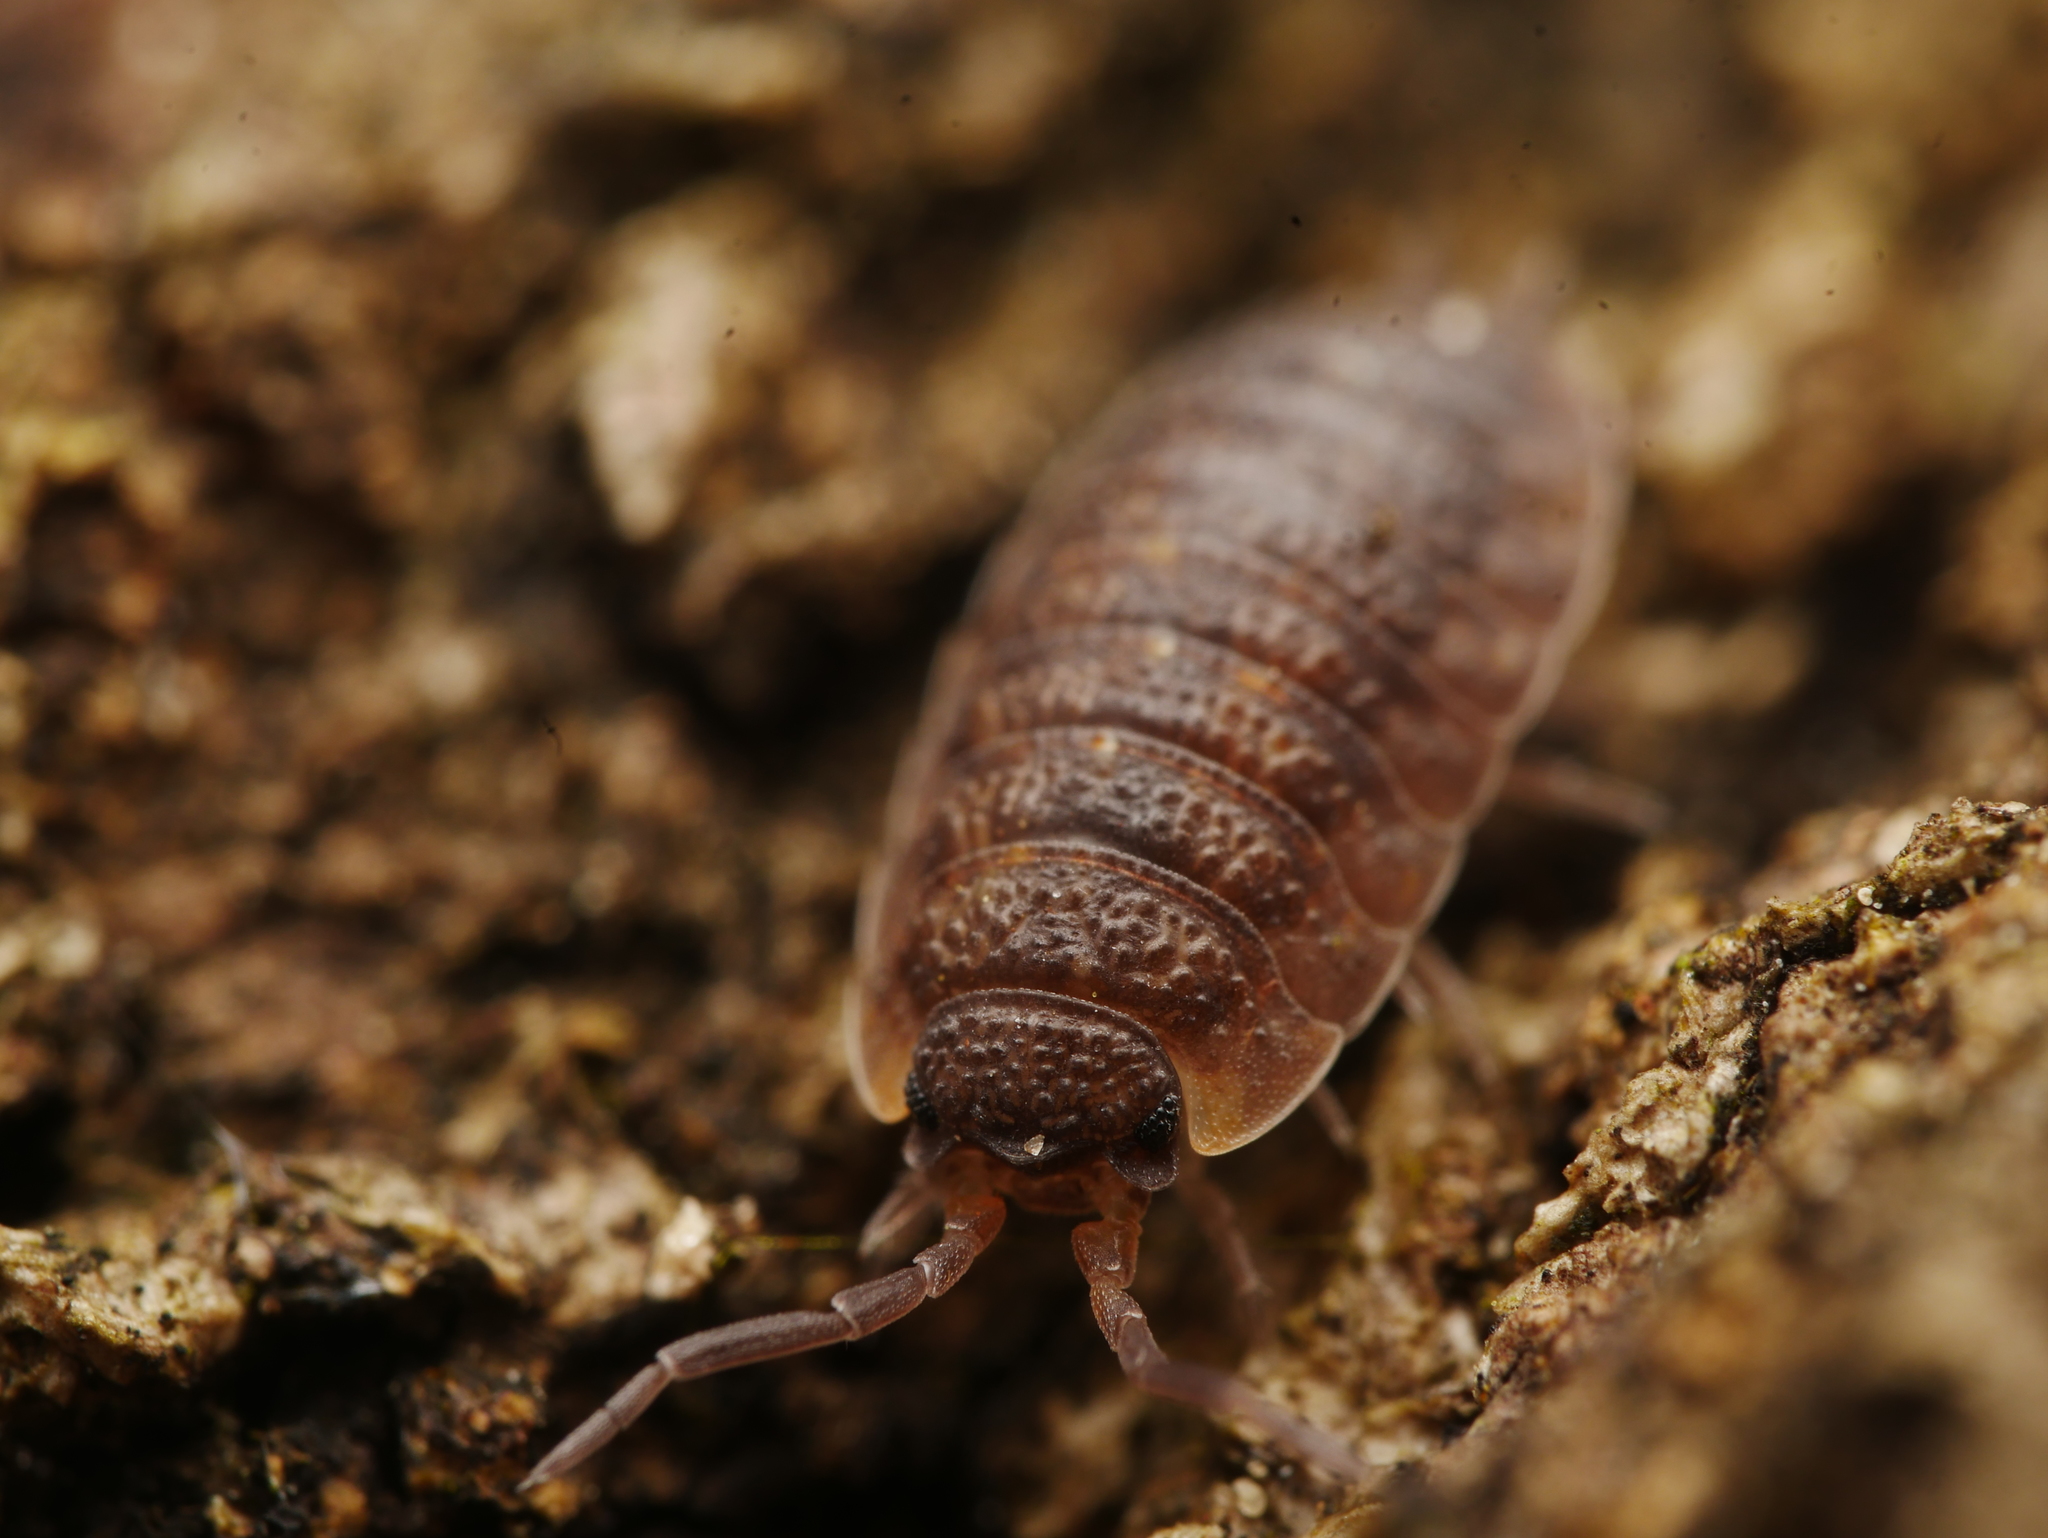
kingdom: Animalia
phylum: Arthropoda
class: Malacostraca
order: Isopoda
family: Porcellionidae
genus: Porcellio
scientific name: Porcellio scaber
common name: Common rough woodlouse
